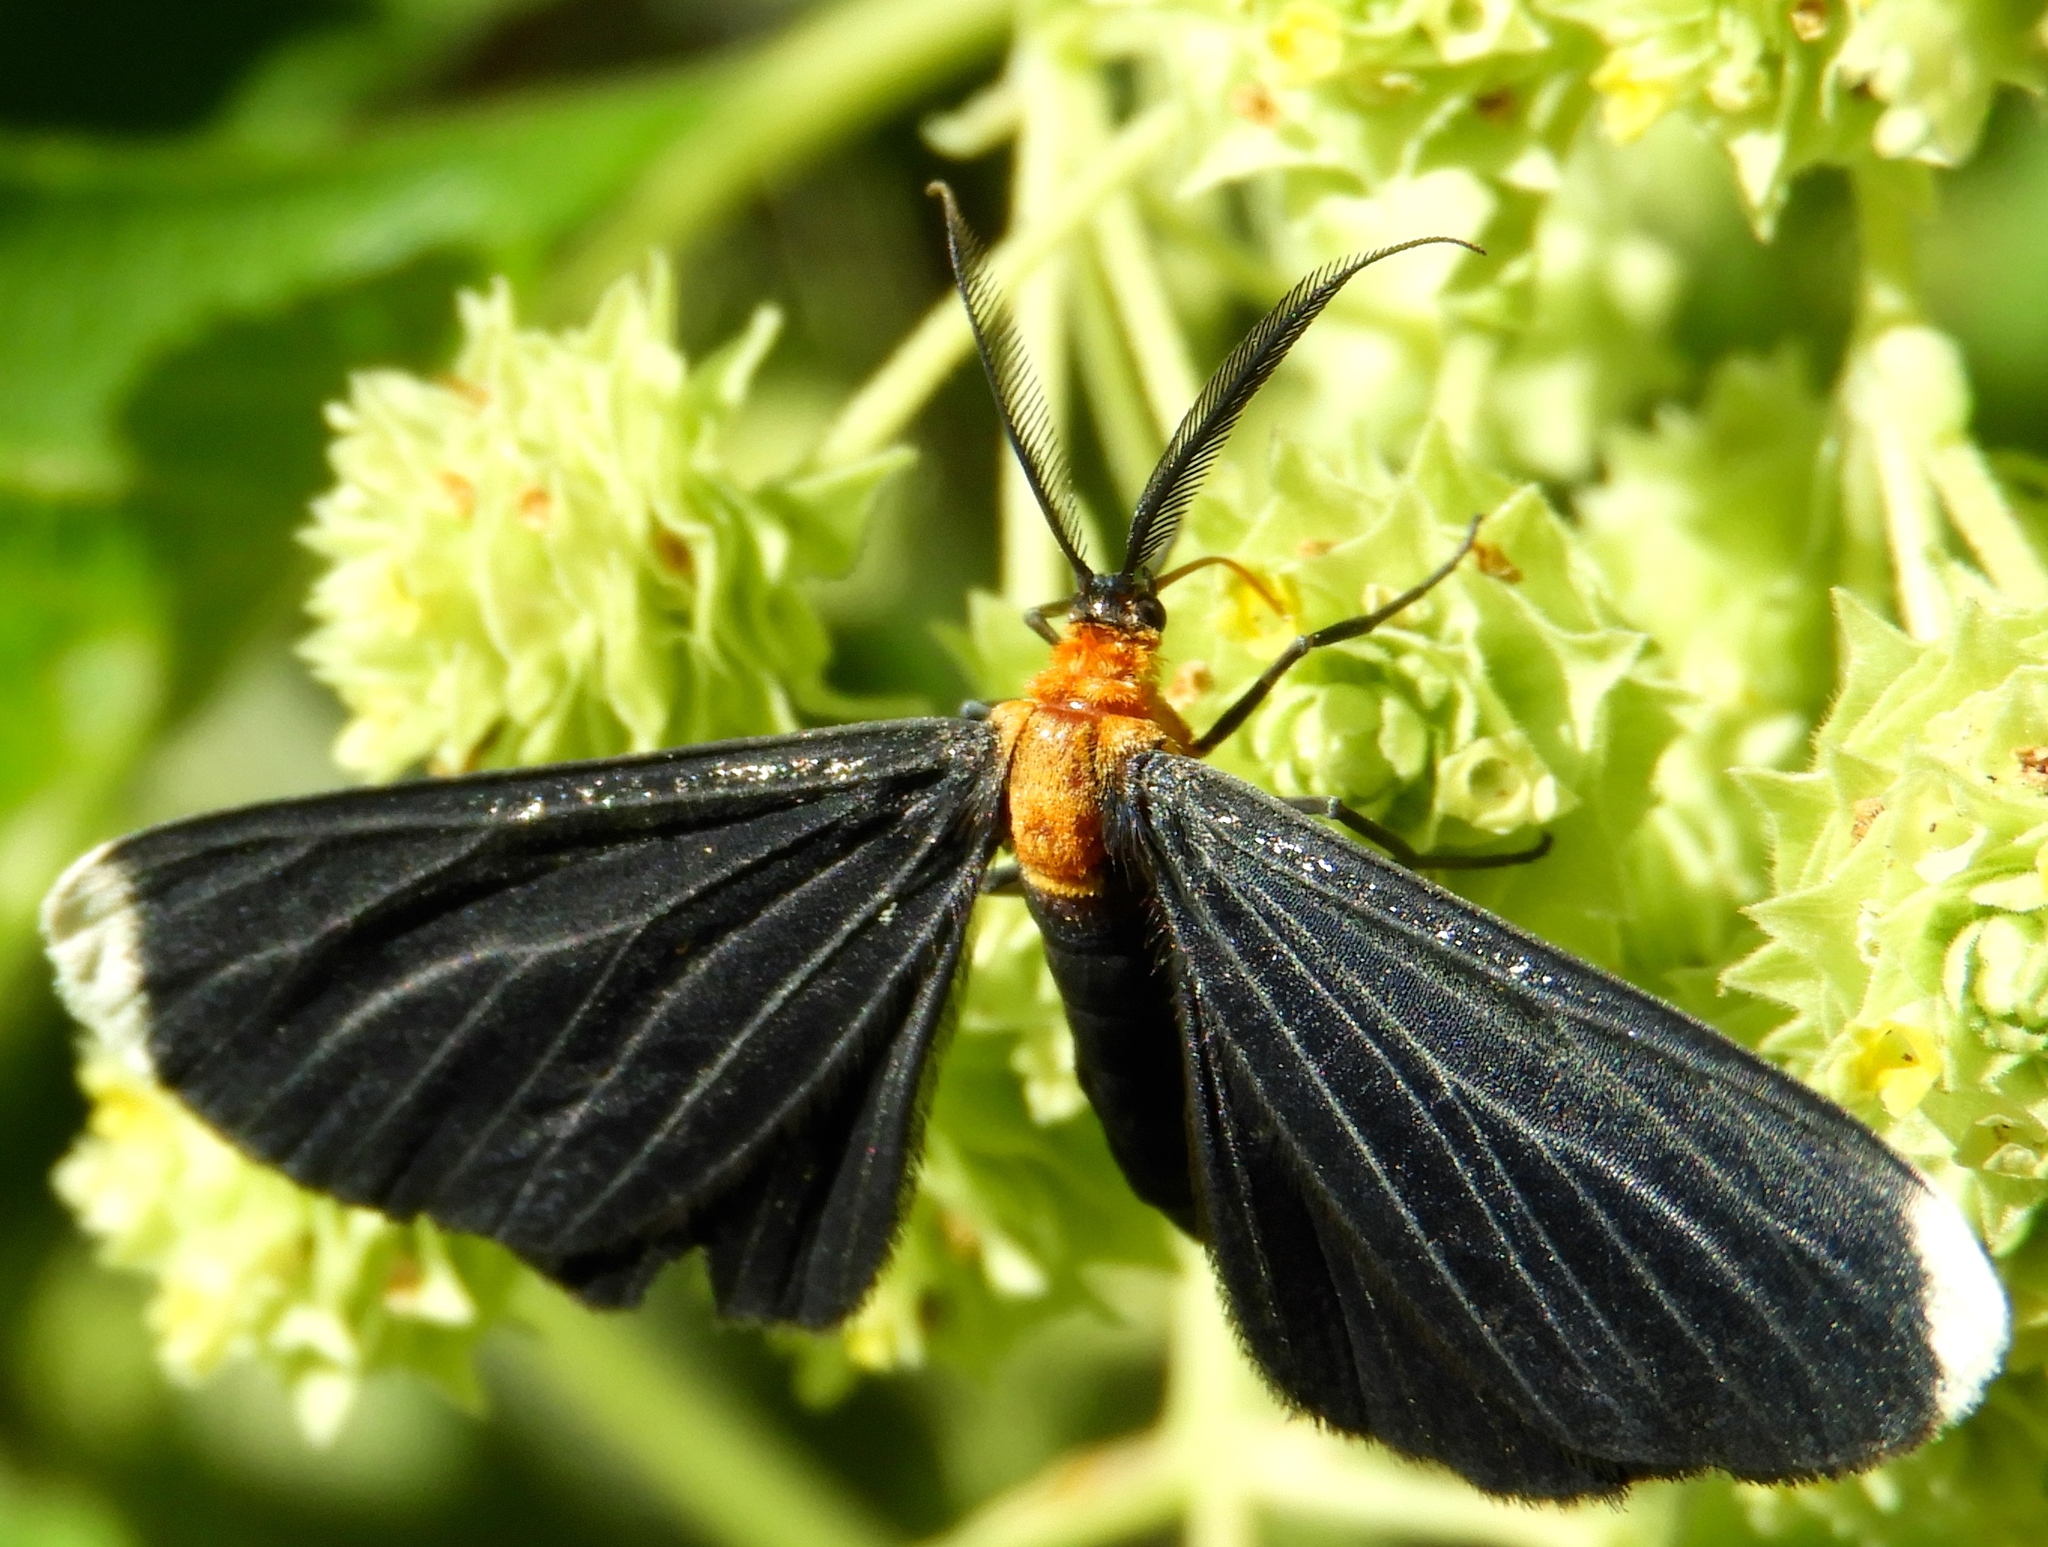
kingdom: Animalia
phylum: Arthropoda
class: Insecta
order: Lepidoptera
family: Geometridae
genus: Melanchroia
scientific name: Melanchroia chephise
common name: White-tipped black
